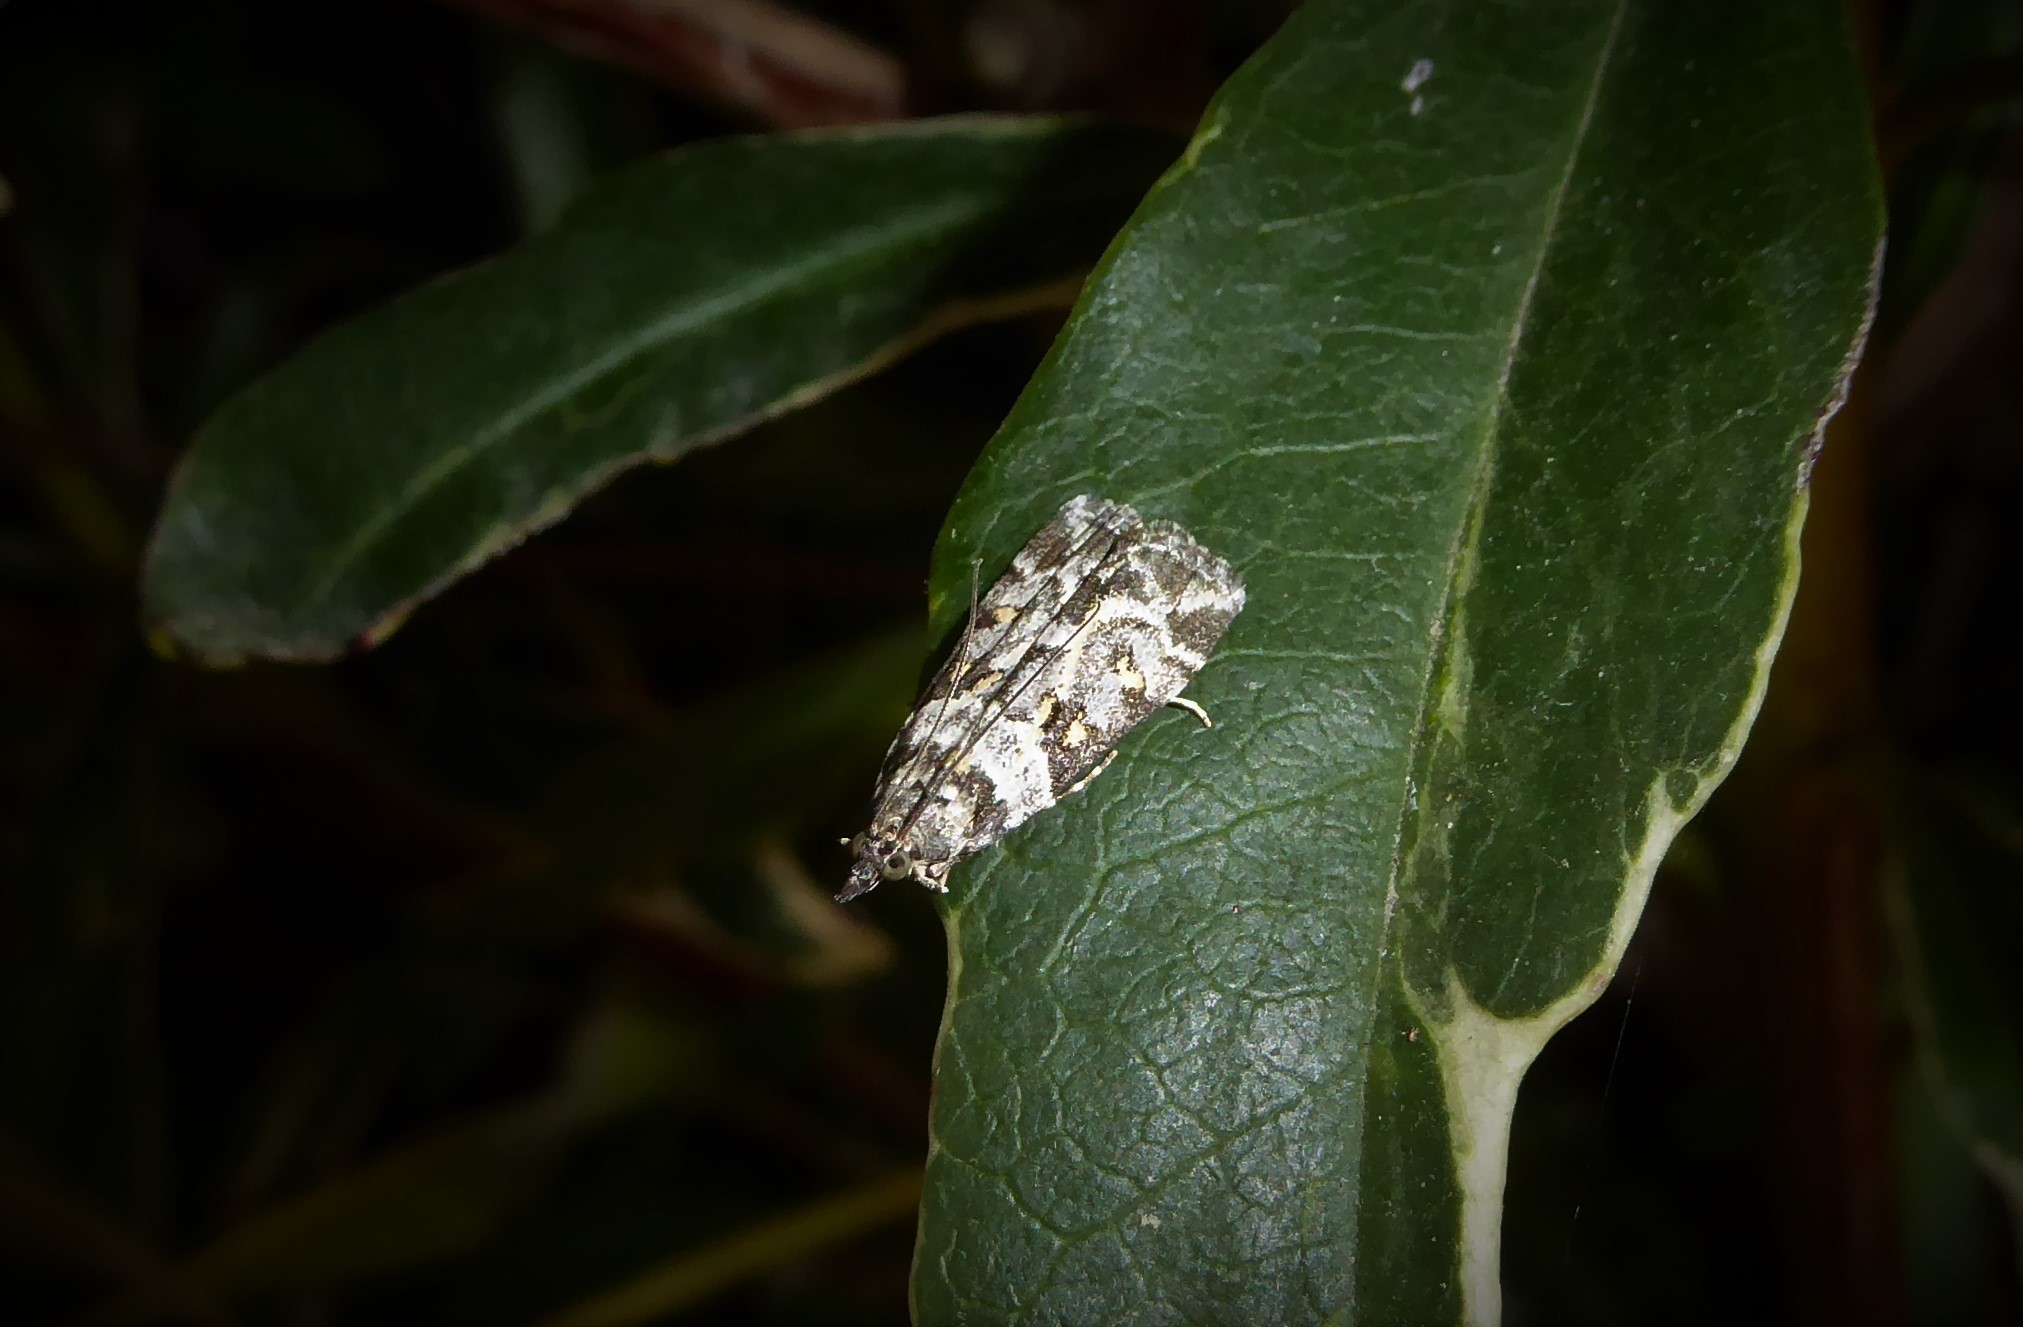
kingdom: Animalia
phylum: Arthropoda
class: Insecta
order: Lepidoptera
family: Crambidae
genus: Eudonia
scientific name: Eudonia diphtheralis
